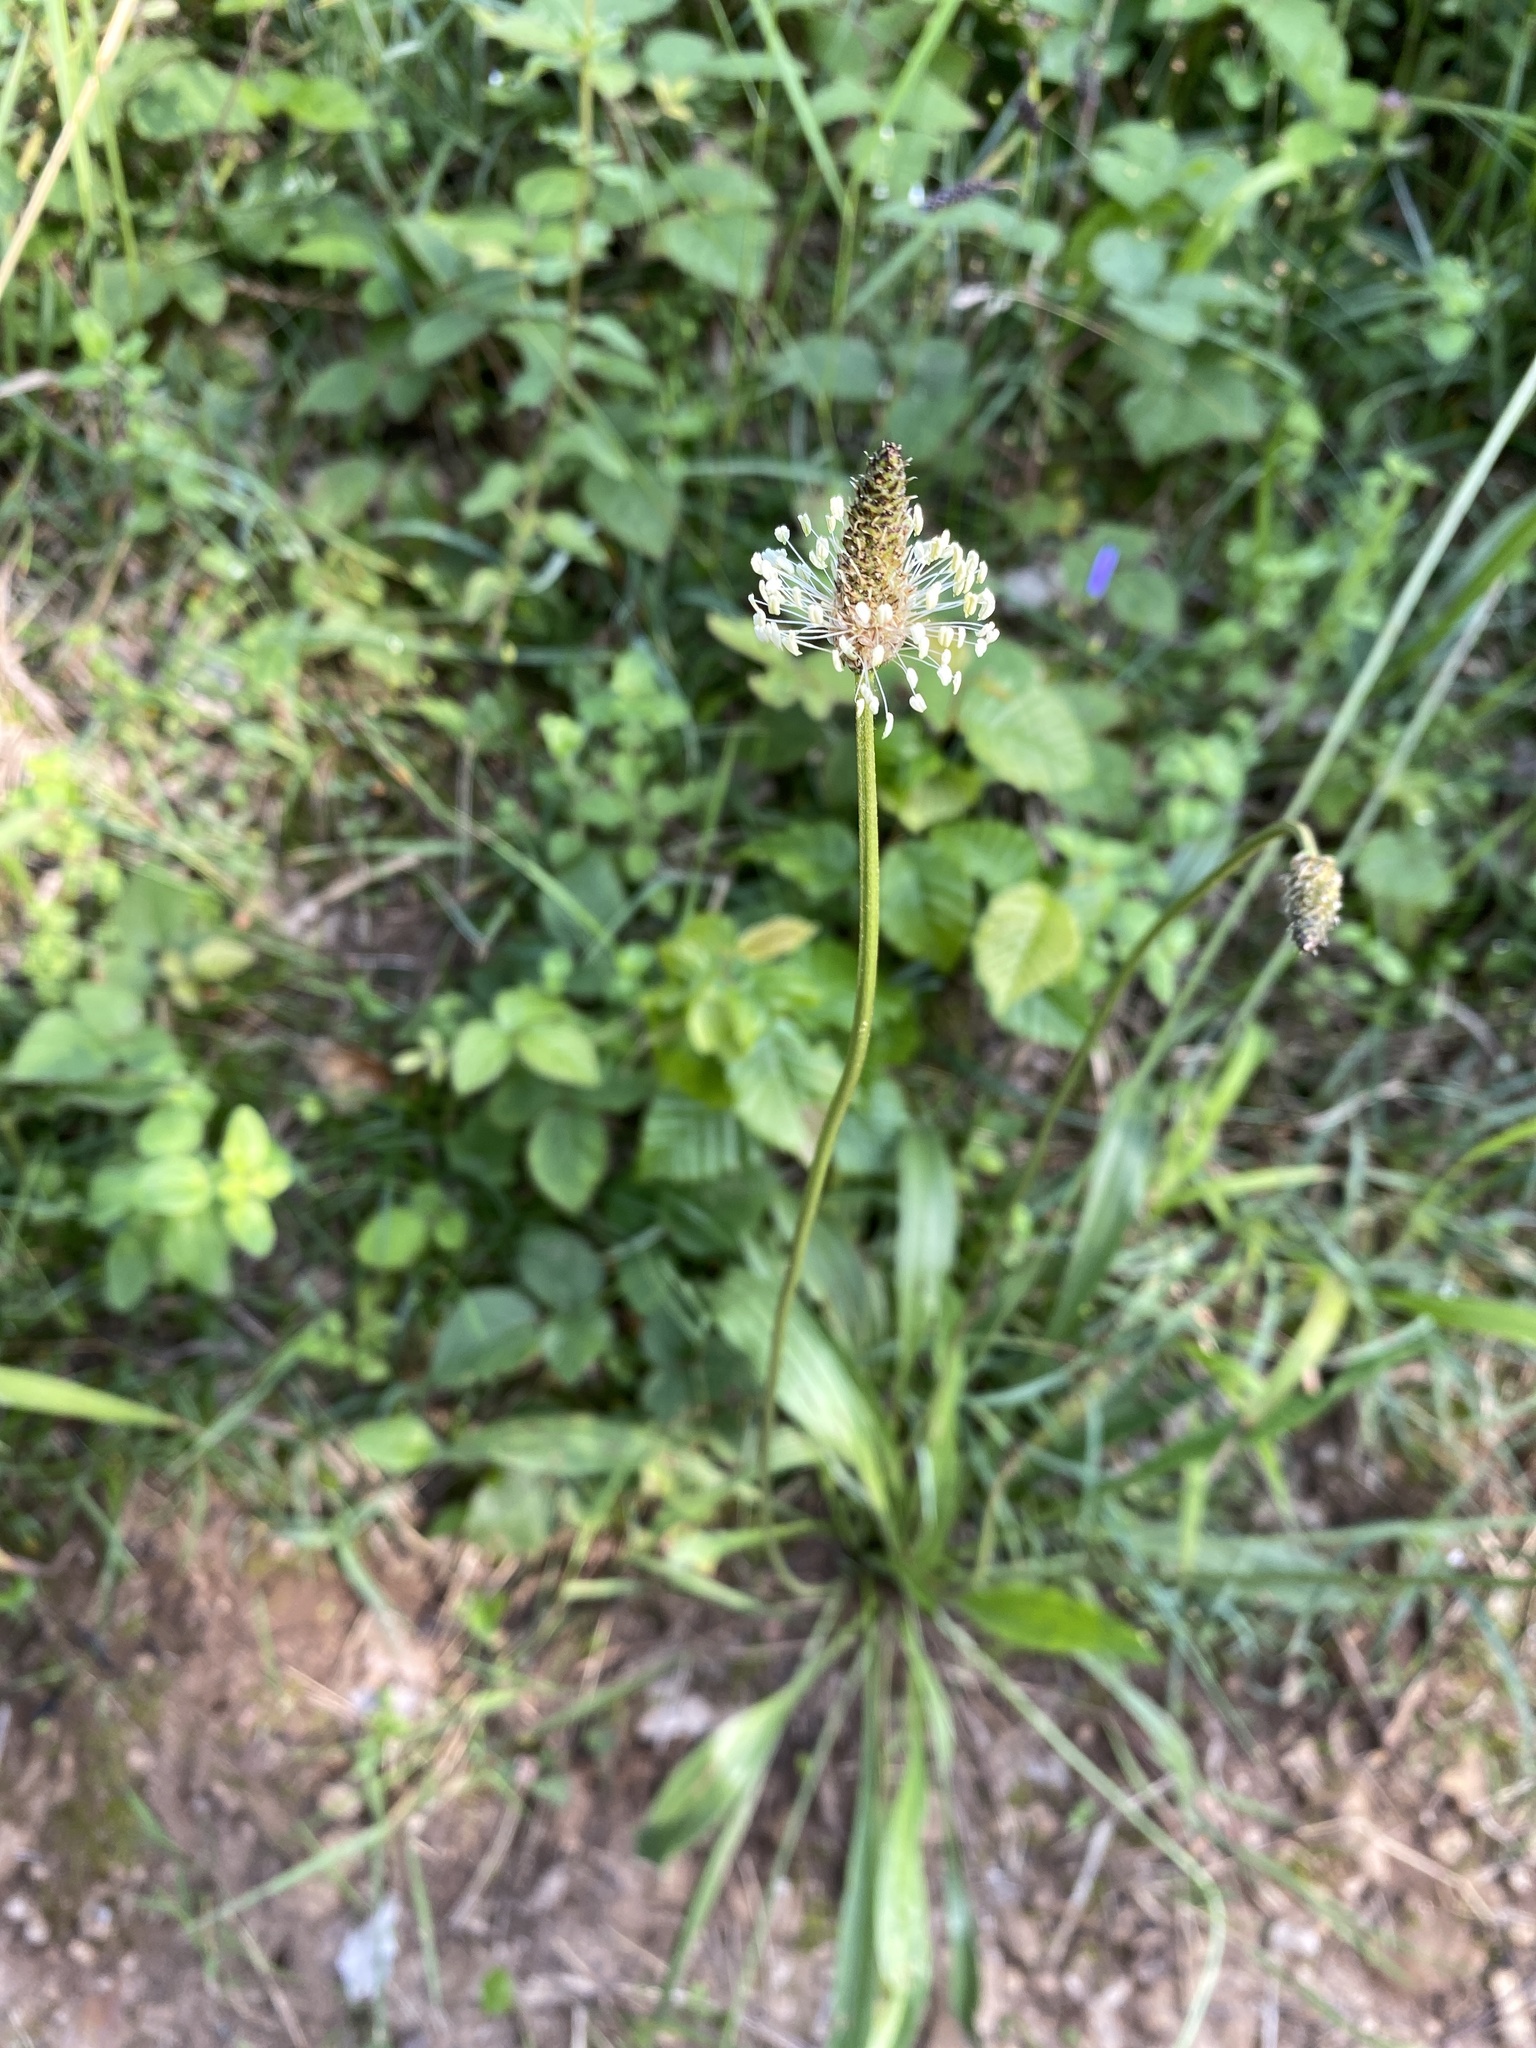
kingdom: Plantae
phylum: Tracheophyta
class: Magnoliopsida
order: Lamiales
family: Plantaginaceae
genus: Plantago
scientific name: Plantago lanceolata
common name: Ribwort plantain
